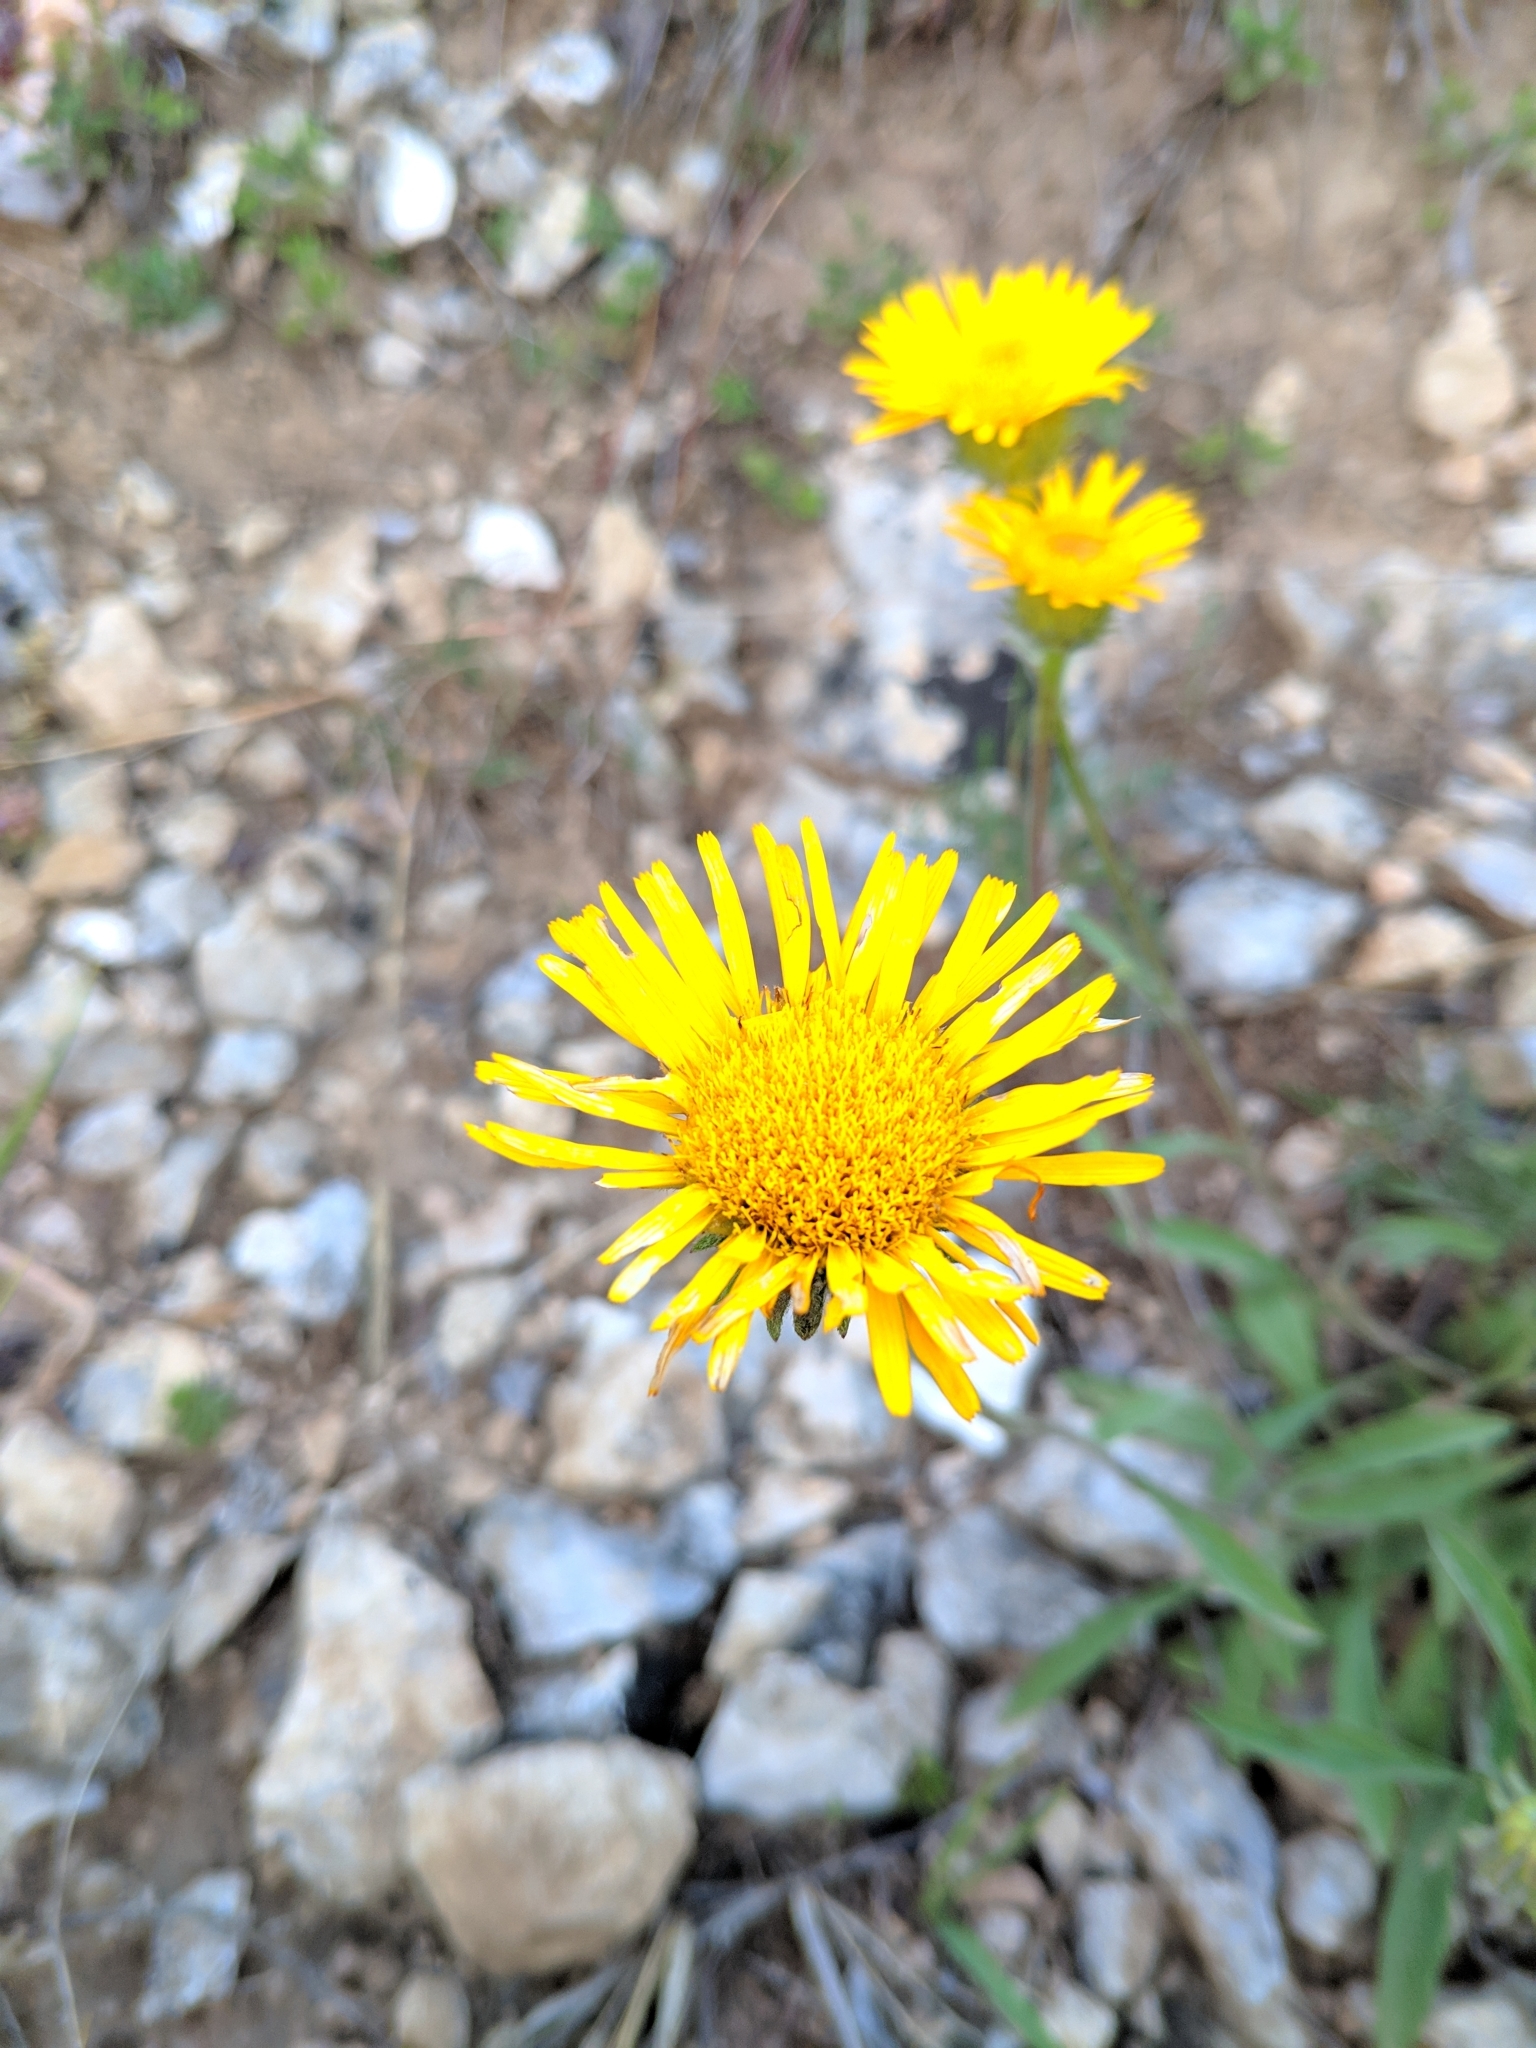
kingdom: Plantae
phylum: Tracheophyta
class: Magnoliopsida
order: Asterales
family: Asteraceae
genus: Pentanema
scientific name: Pentanema montanum
